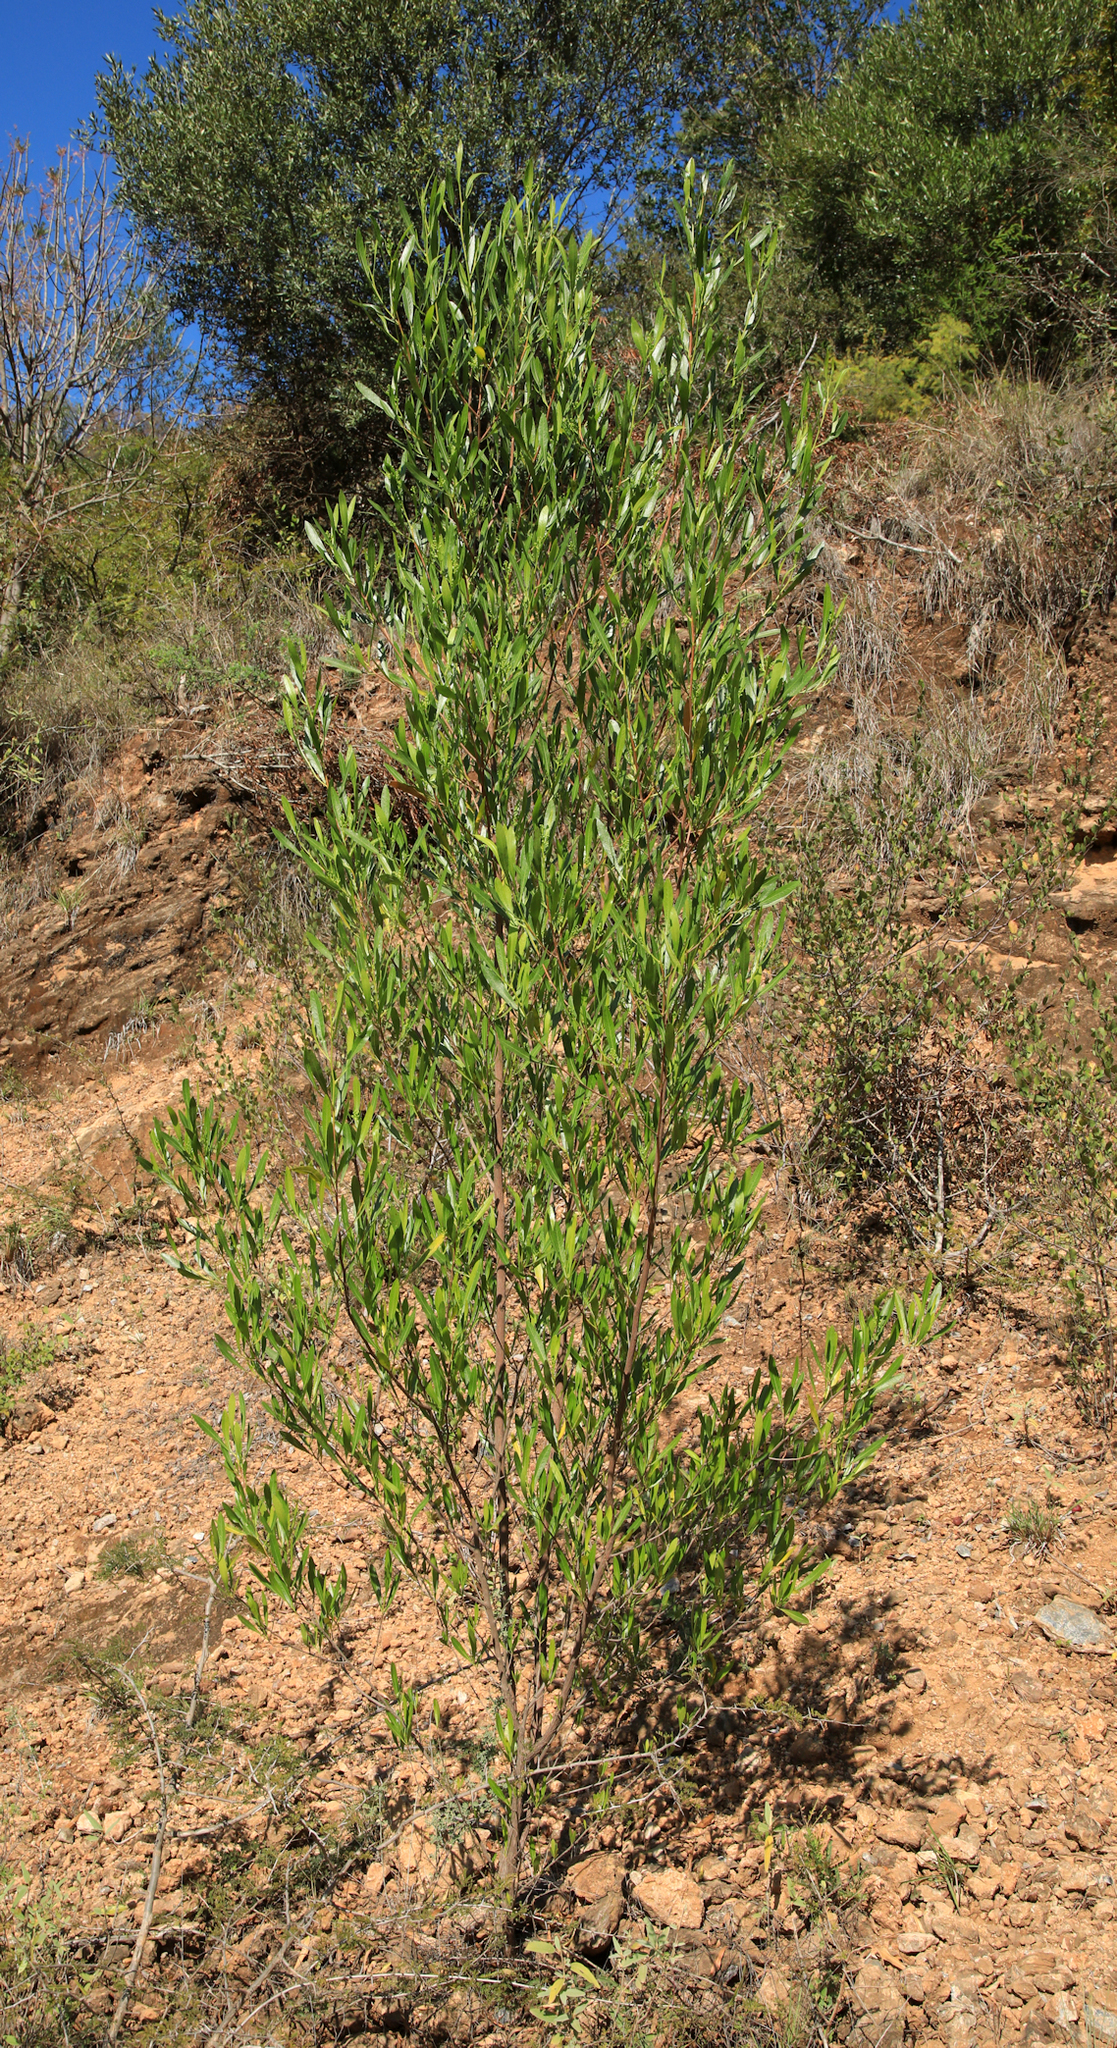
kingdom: Plantae
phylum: Tracheophyta
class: Magnoliopsida
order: Sapindales
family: Sapindaceae
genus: Dodonaea
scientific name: Dodonaea viscosa
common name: Hopbush
